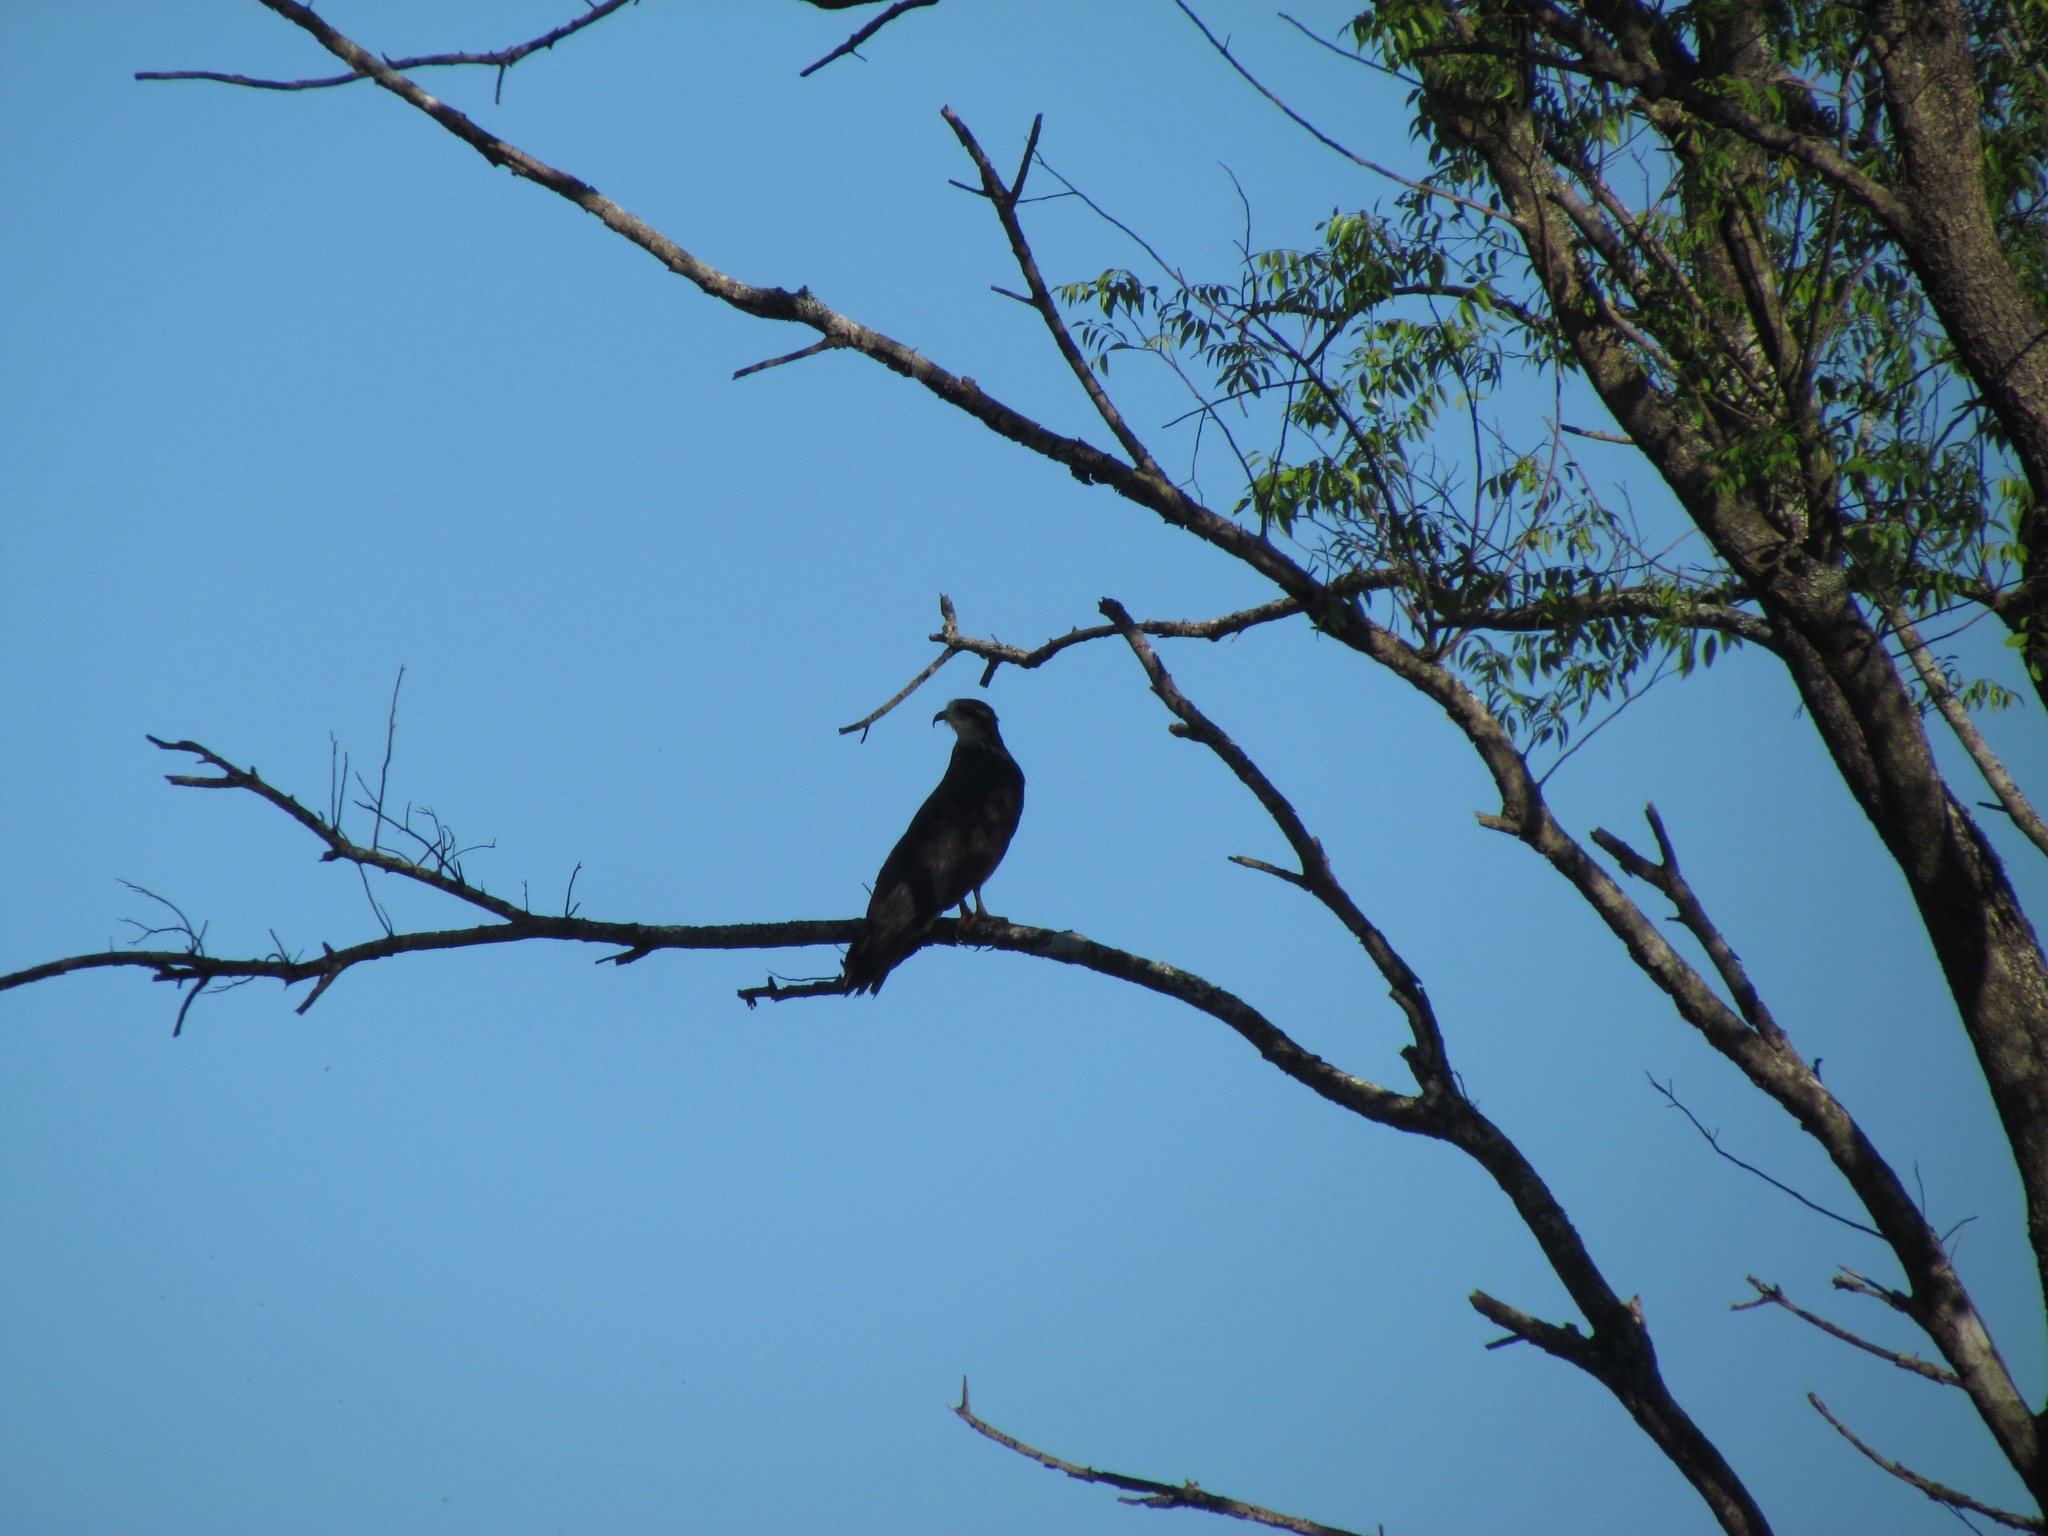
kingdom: Animalia
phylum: Chordata
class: Aves
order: Accipitriformes
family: Accipitridae
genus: Rostrhamus
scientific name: Rostrhamus sociabilis
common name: Snail kite
